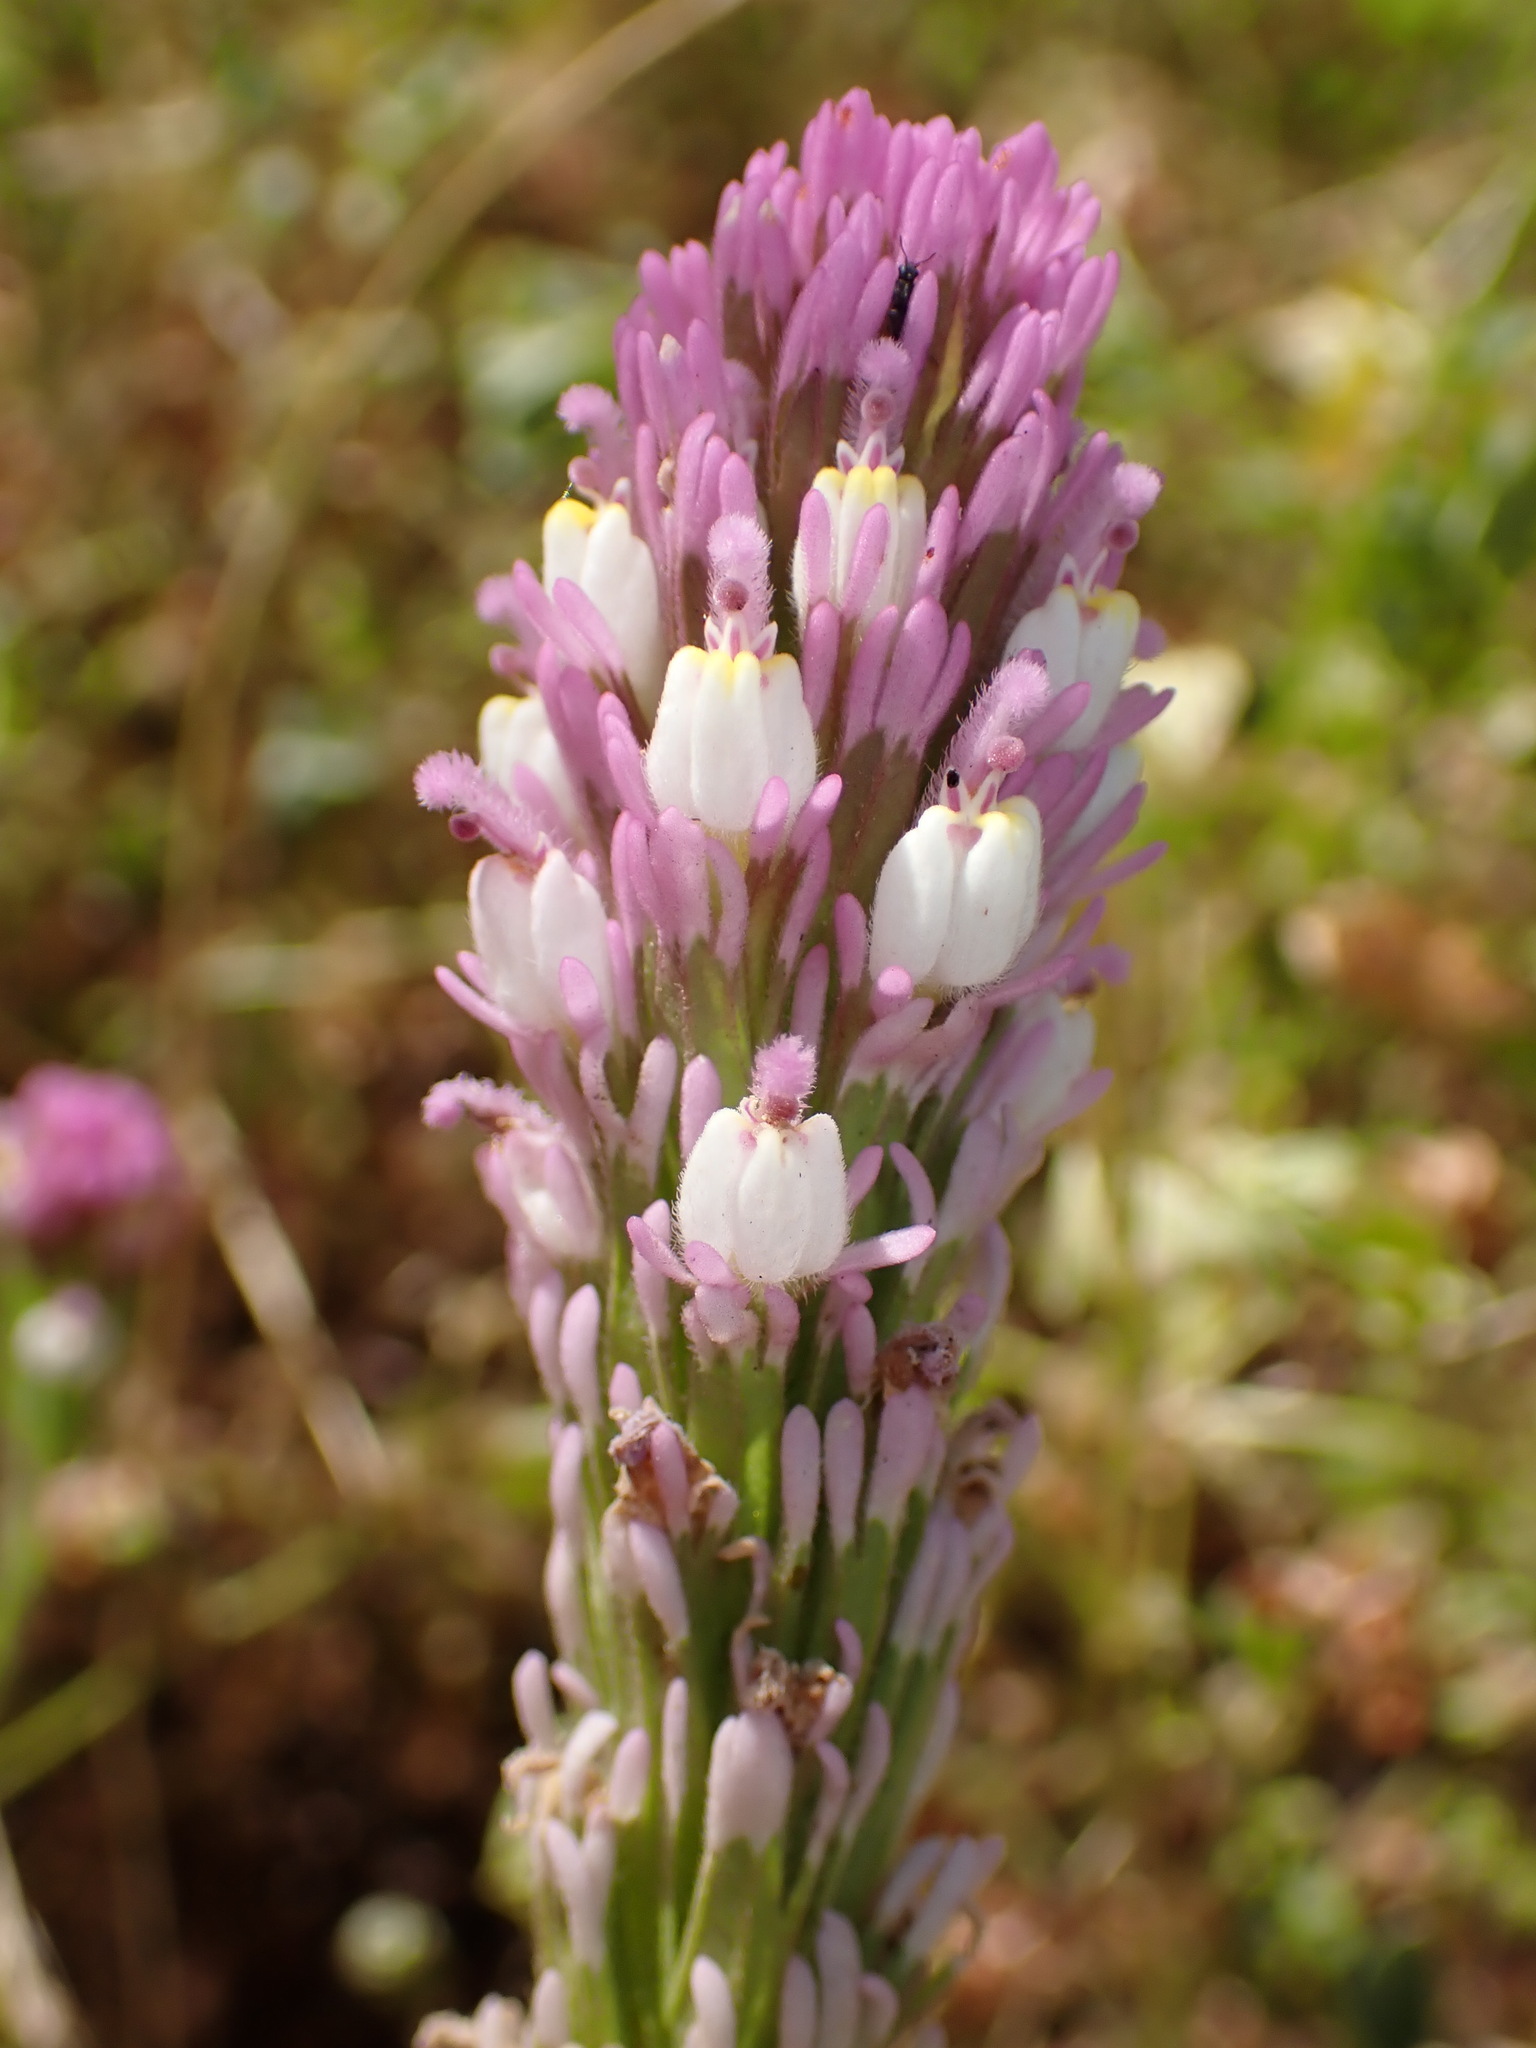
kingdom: Plantae
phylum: Tracheophyta
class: Magnoliopsida
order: Lamiales
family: Orobanchaceae
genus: Castilleja
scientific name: Castilleja exserta
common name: Purple owl-clover
